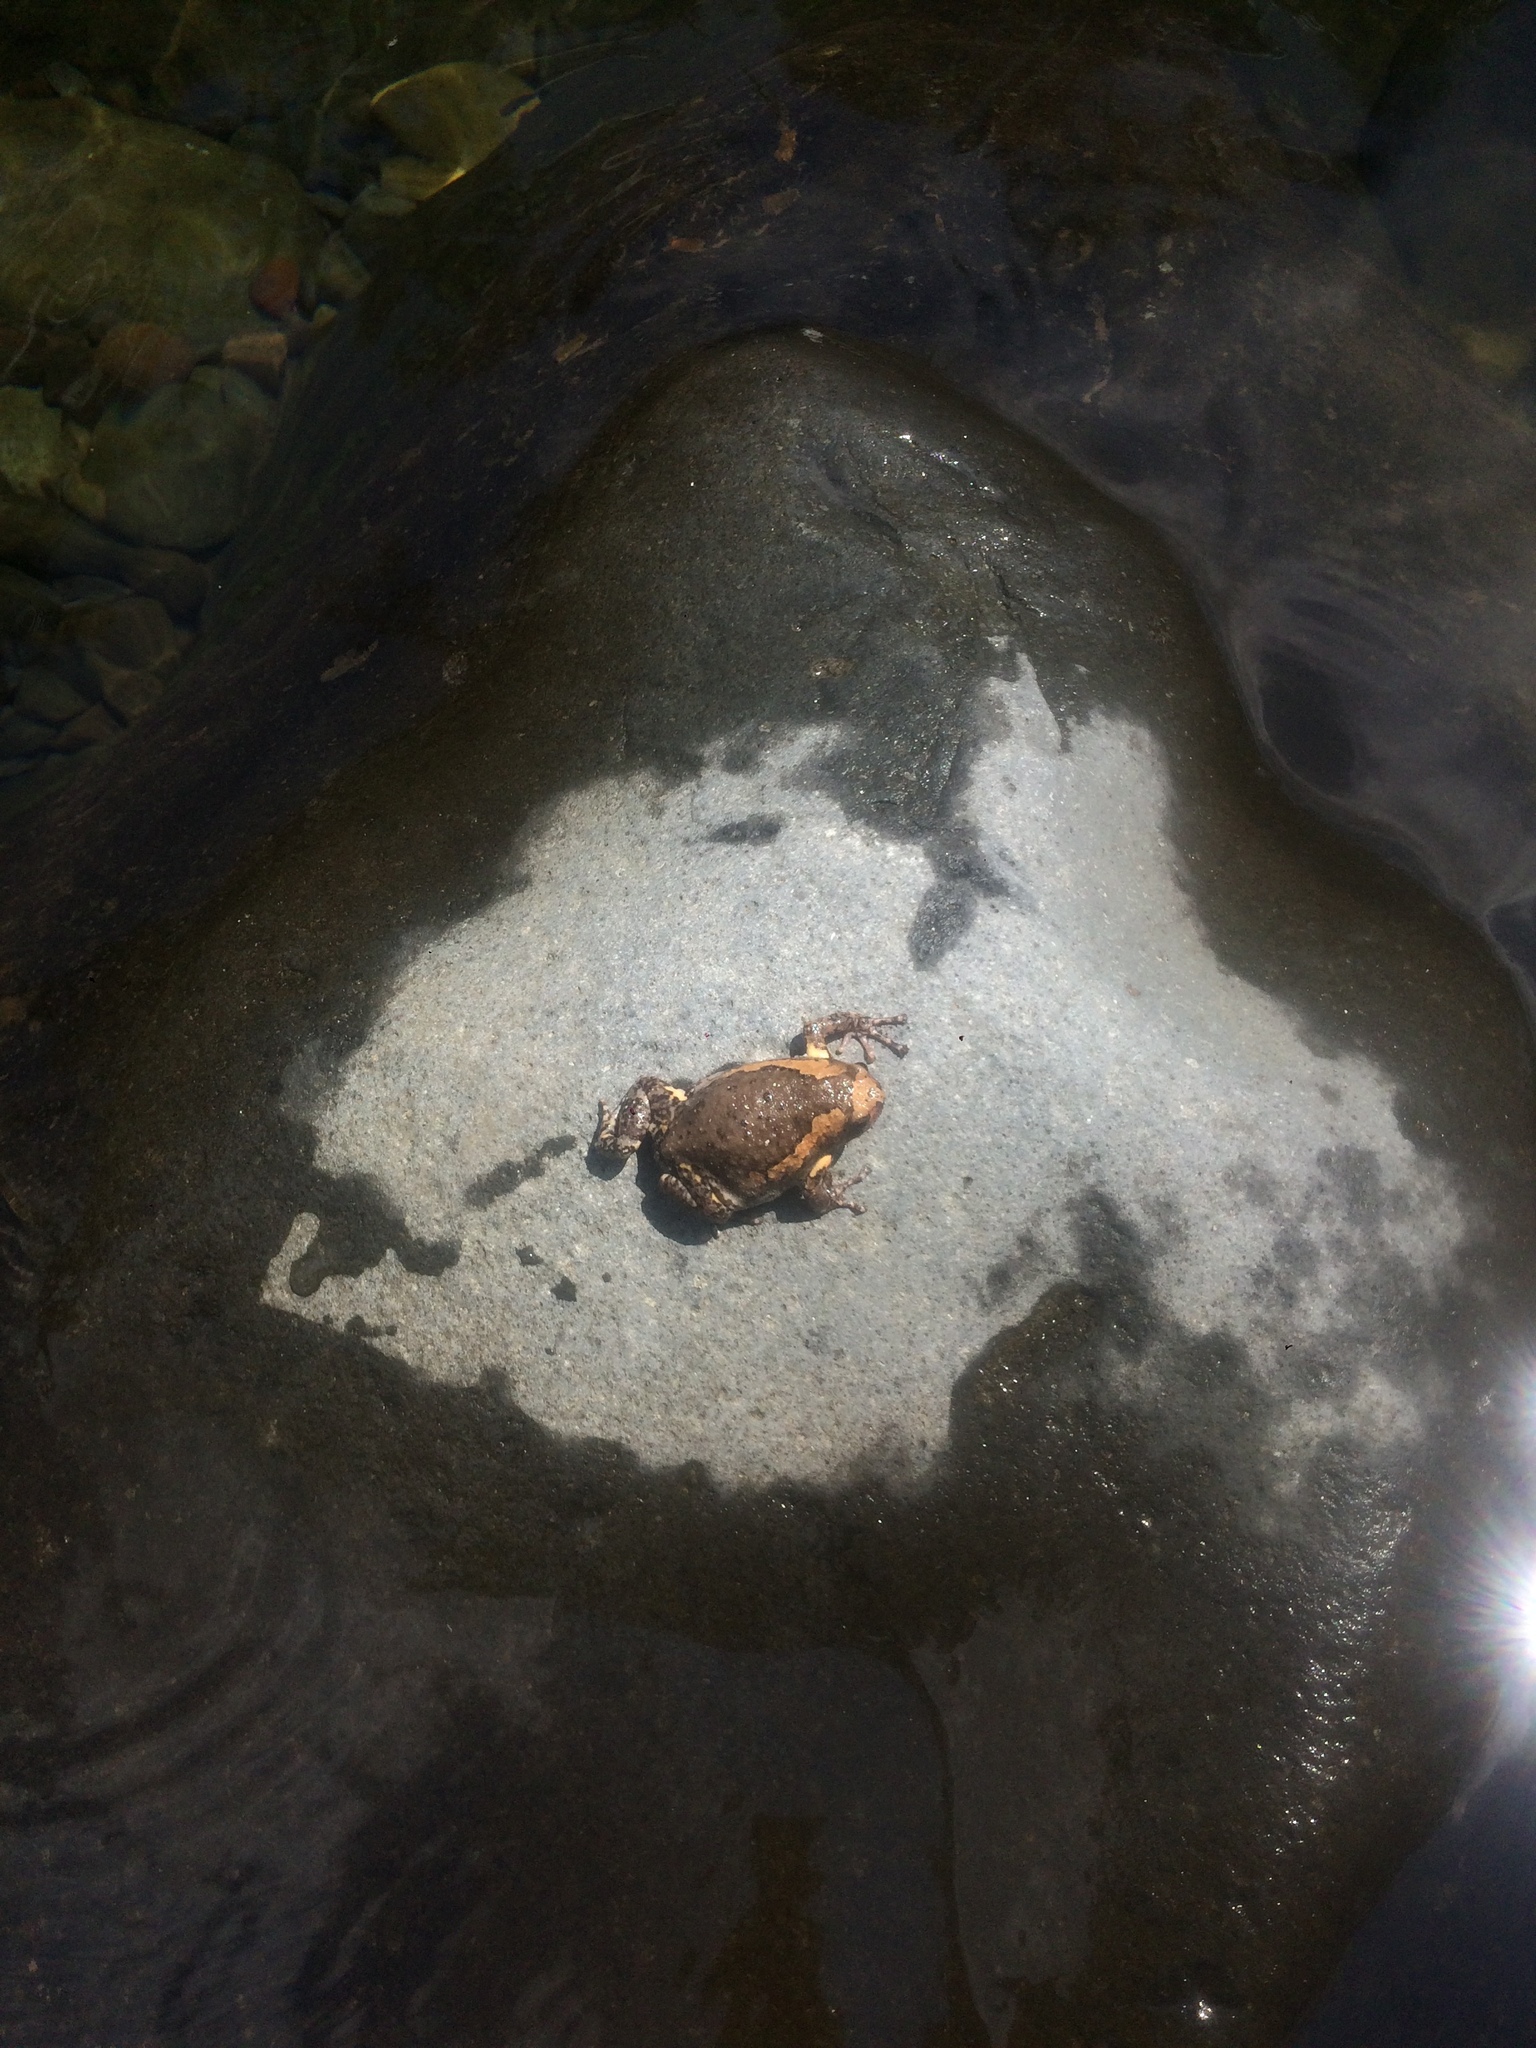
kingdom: Animalia
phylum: Chordata
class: Amphibia
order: Anura
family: Microhylidae
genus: Kaloula
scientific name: Kaloula pulchra
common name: Common,banded bullfrog
